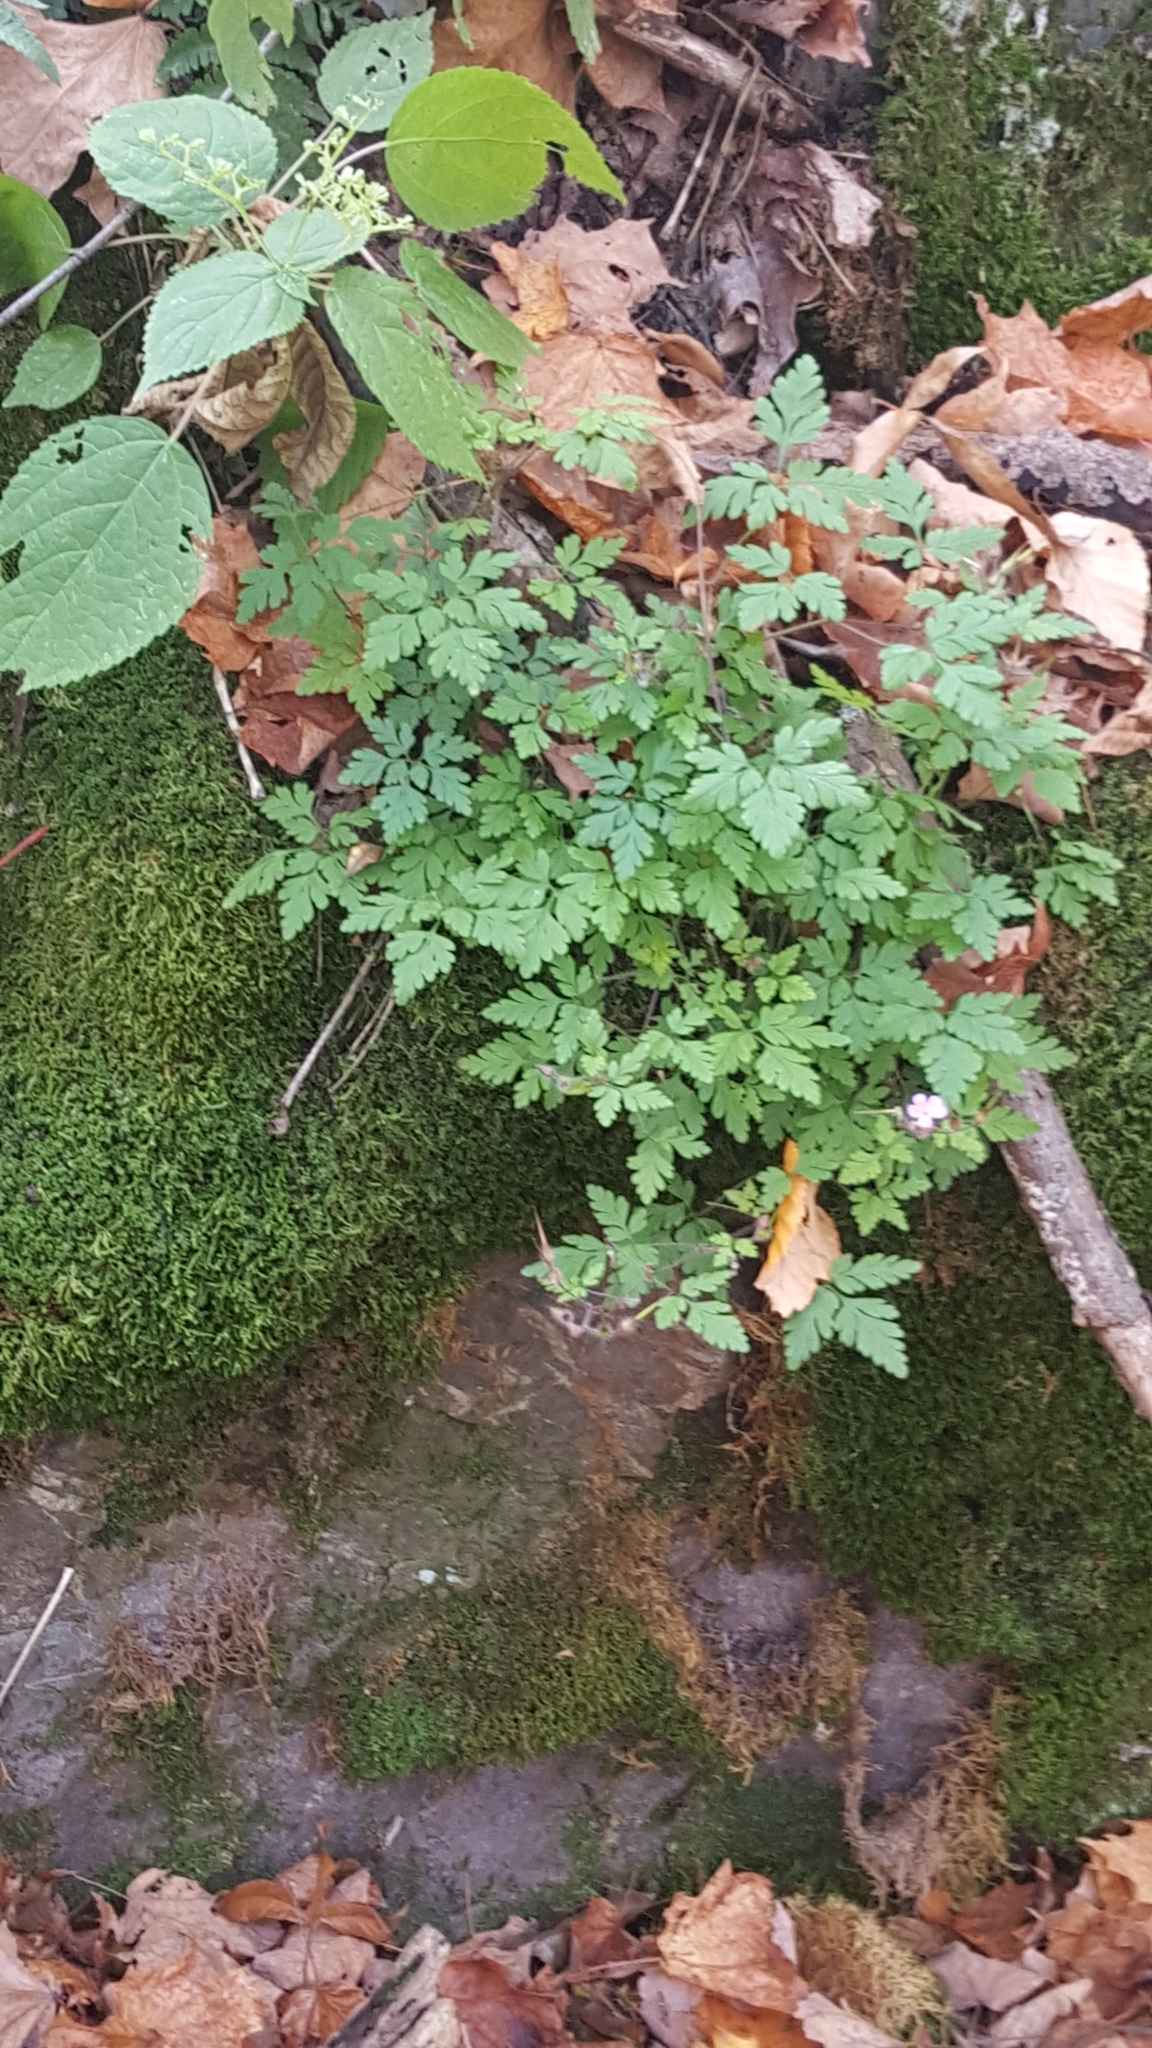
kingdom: Plantae
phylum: Tracheophyta
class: Magnoliopsida
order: Geraniales
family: Geraniaceae
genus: Geranium
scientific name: Geranium robertianum
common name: Herb-robert
